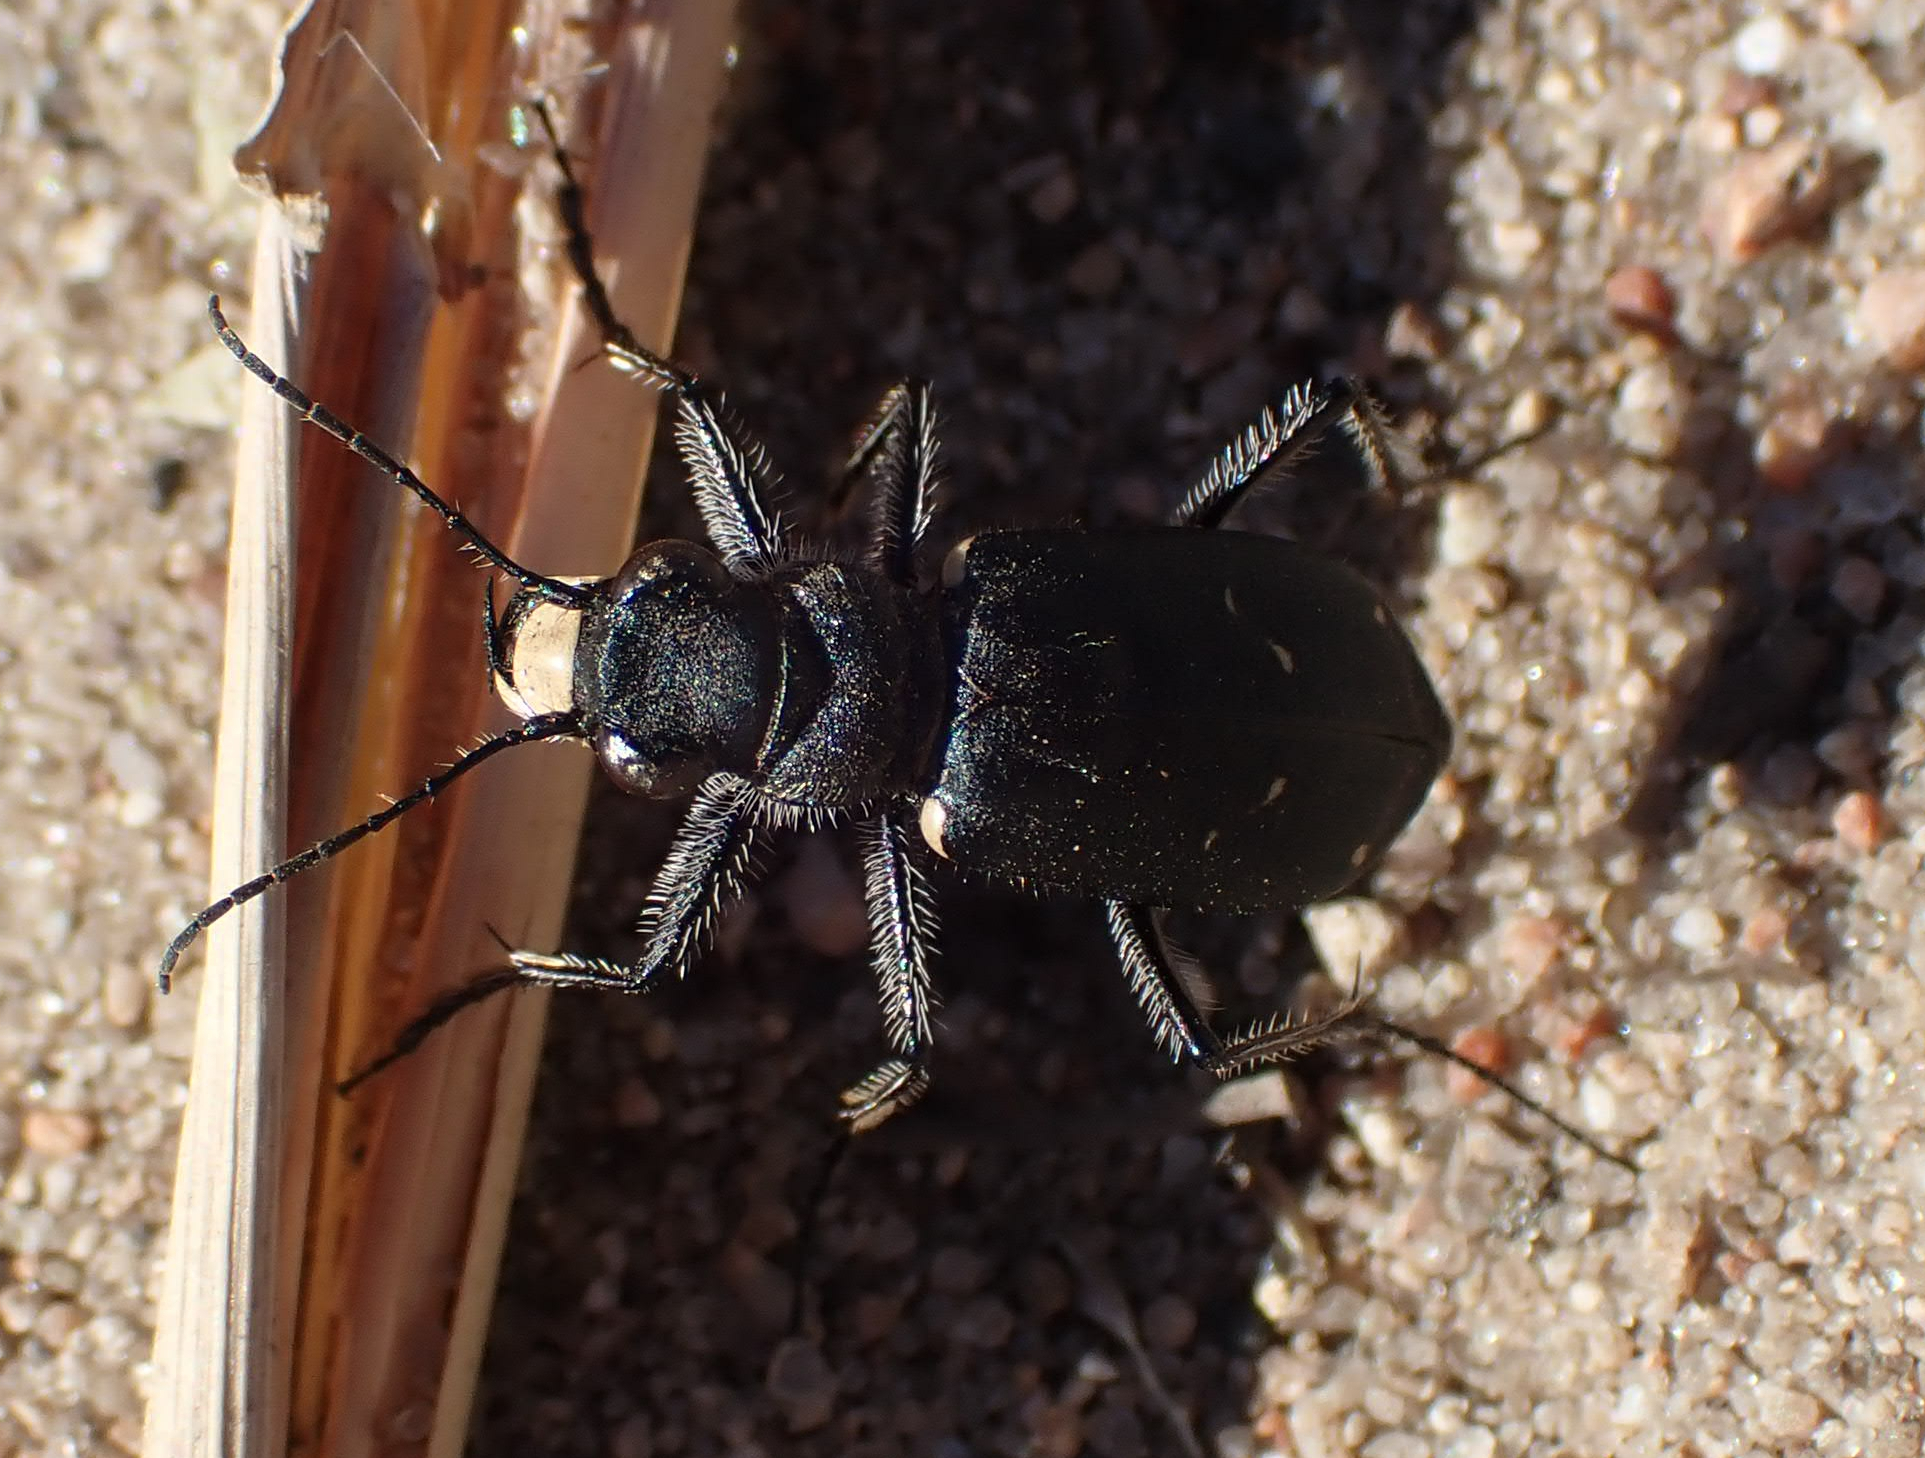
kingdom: Animalia
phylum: Arthropoda
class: Insecta
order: Coleoptera
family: Carabidae
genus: Cicindela
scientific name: Cicindela longilabris
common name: Boreal long-lipped tiger beetle
